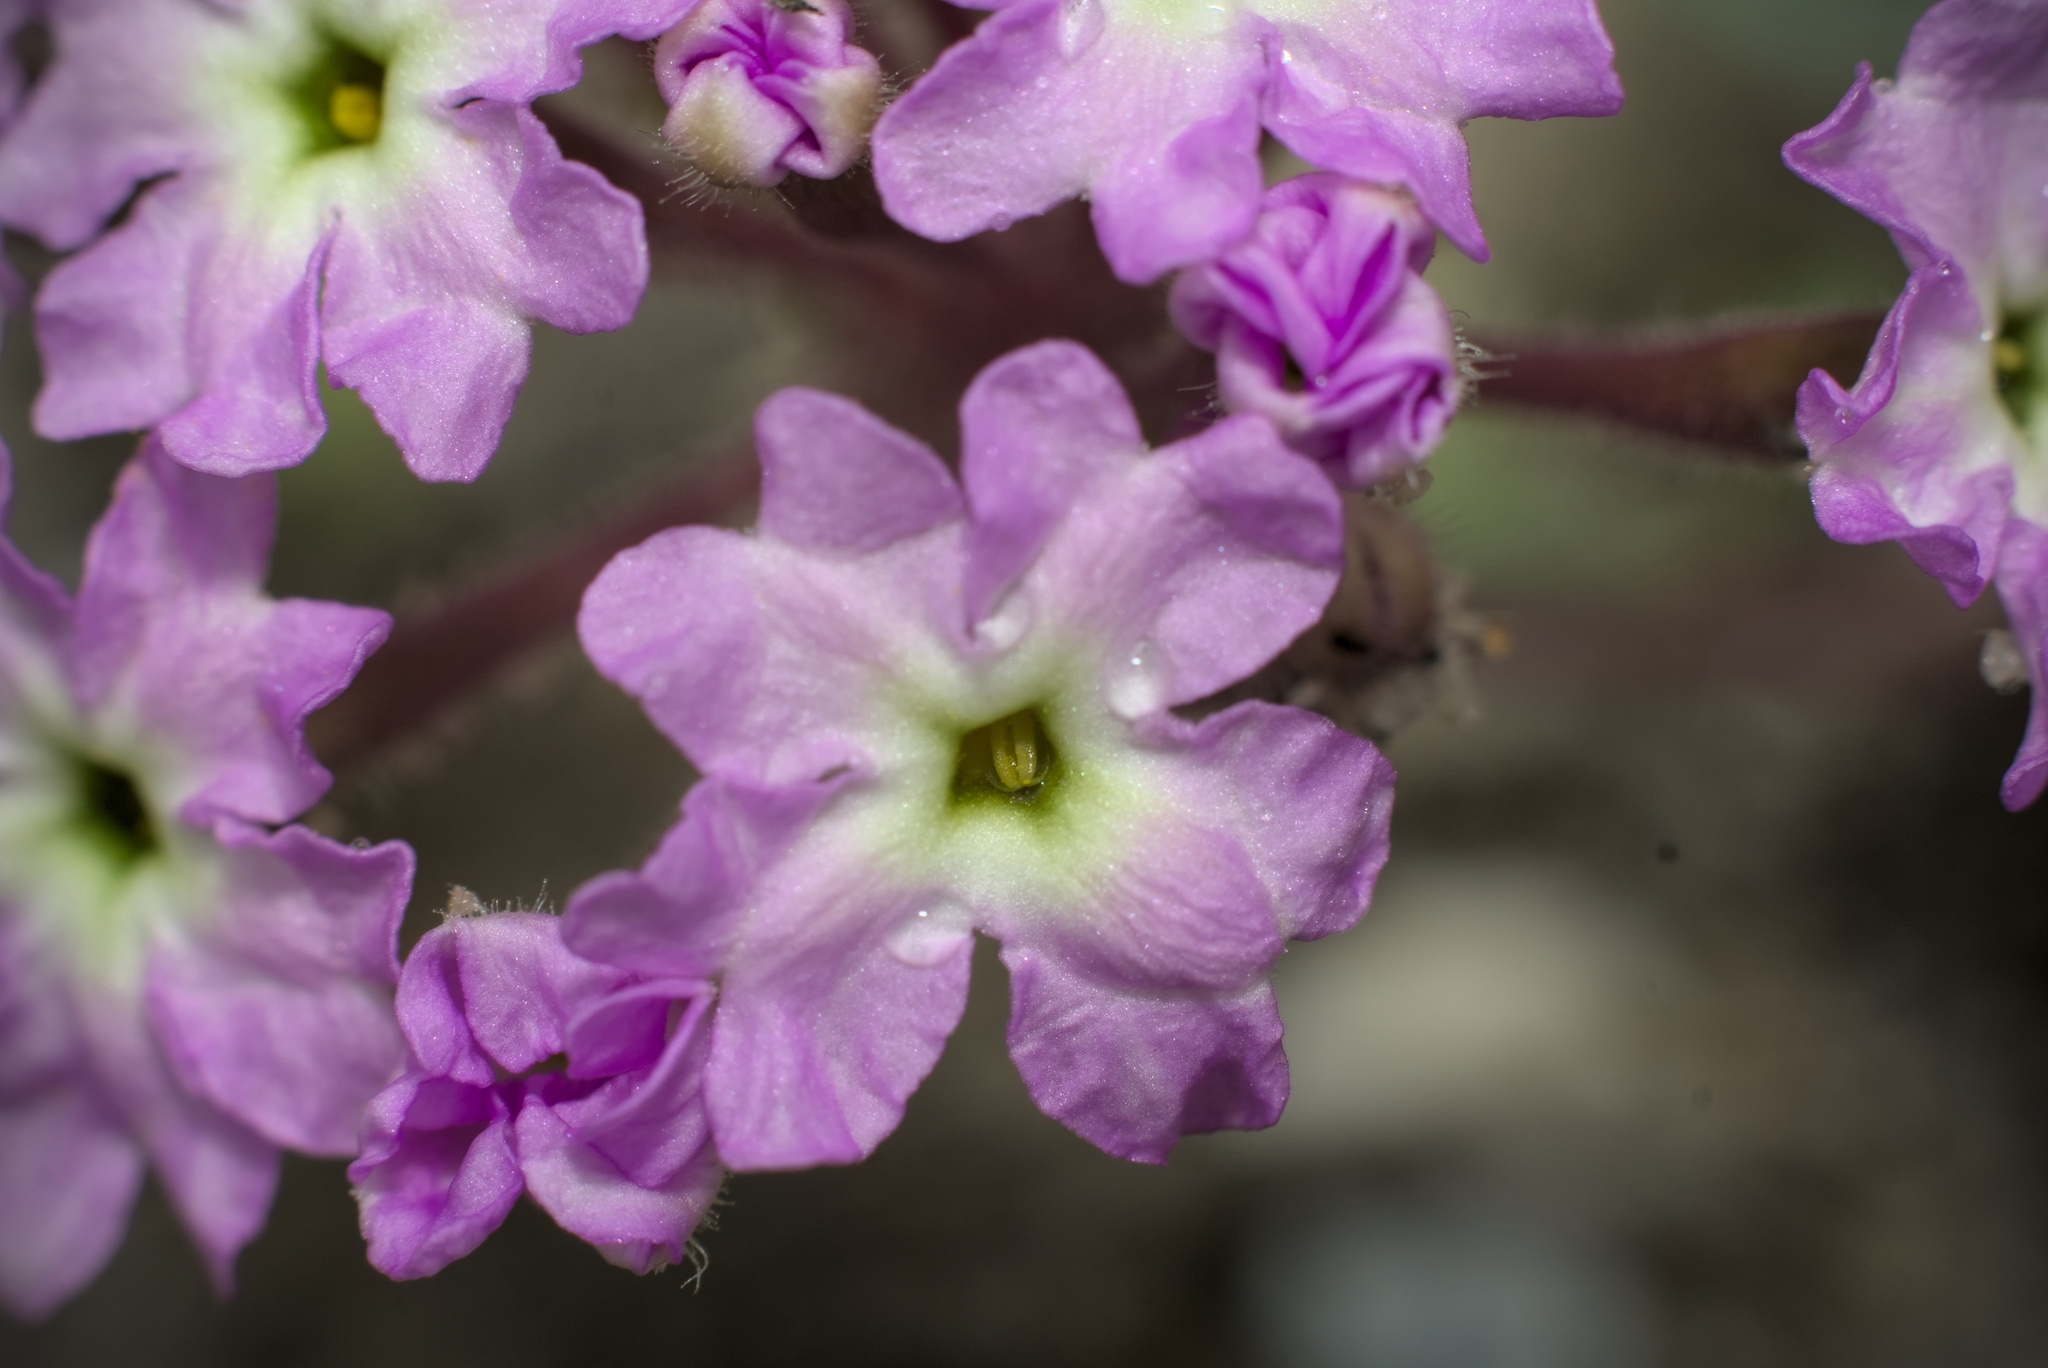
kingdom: Plantae
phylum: Tracheophyta
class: Magnoliopsida
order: Caryophyllales
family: Nyctaginaceae
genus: Abronia
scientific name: Abronia umbellata
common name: Sand-verbena
